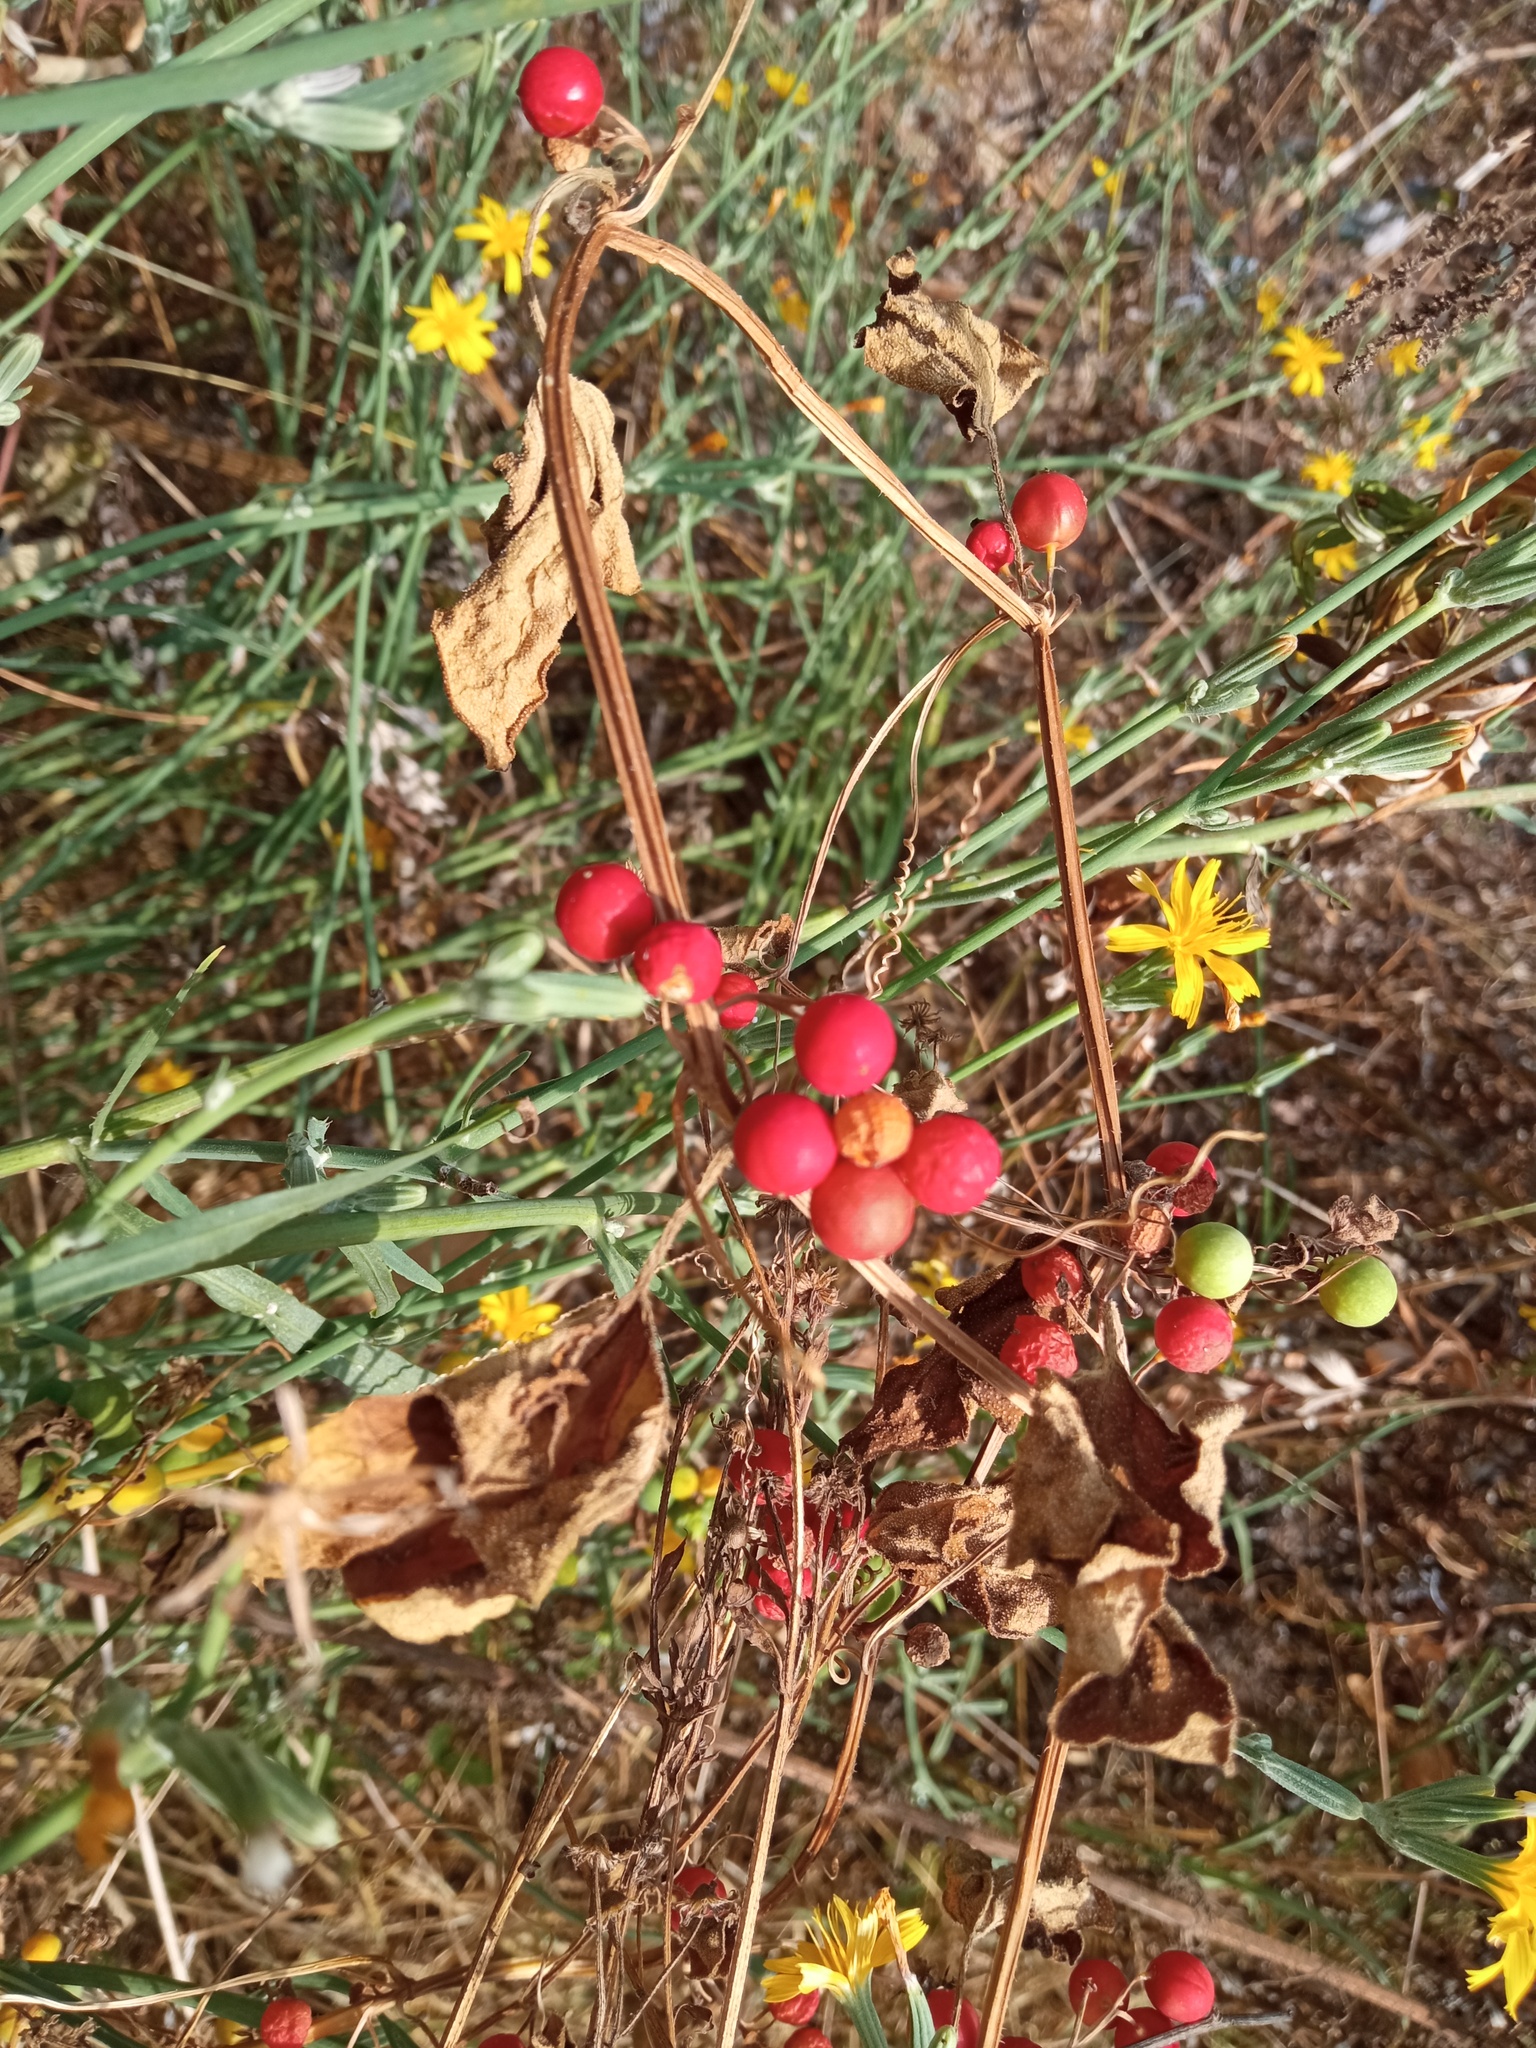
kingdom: Plantae
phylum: Tracheophyta
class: Magnoliopsida
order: Cucurbitales
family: Cucurbitaceae
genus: Bryonia
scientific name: Bryonia dioica
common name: White bryony
